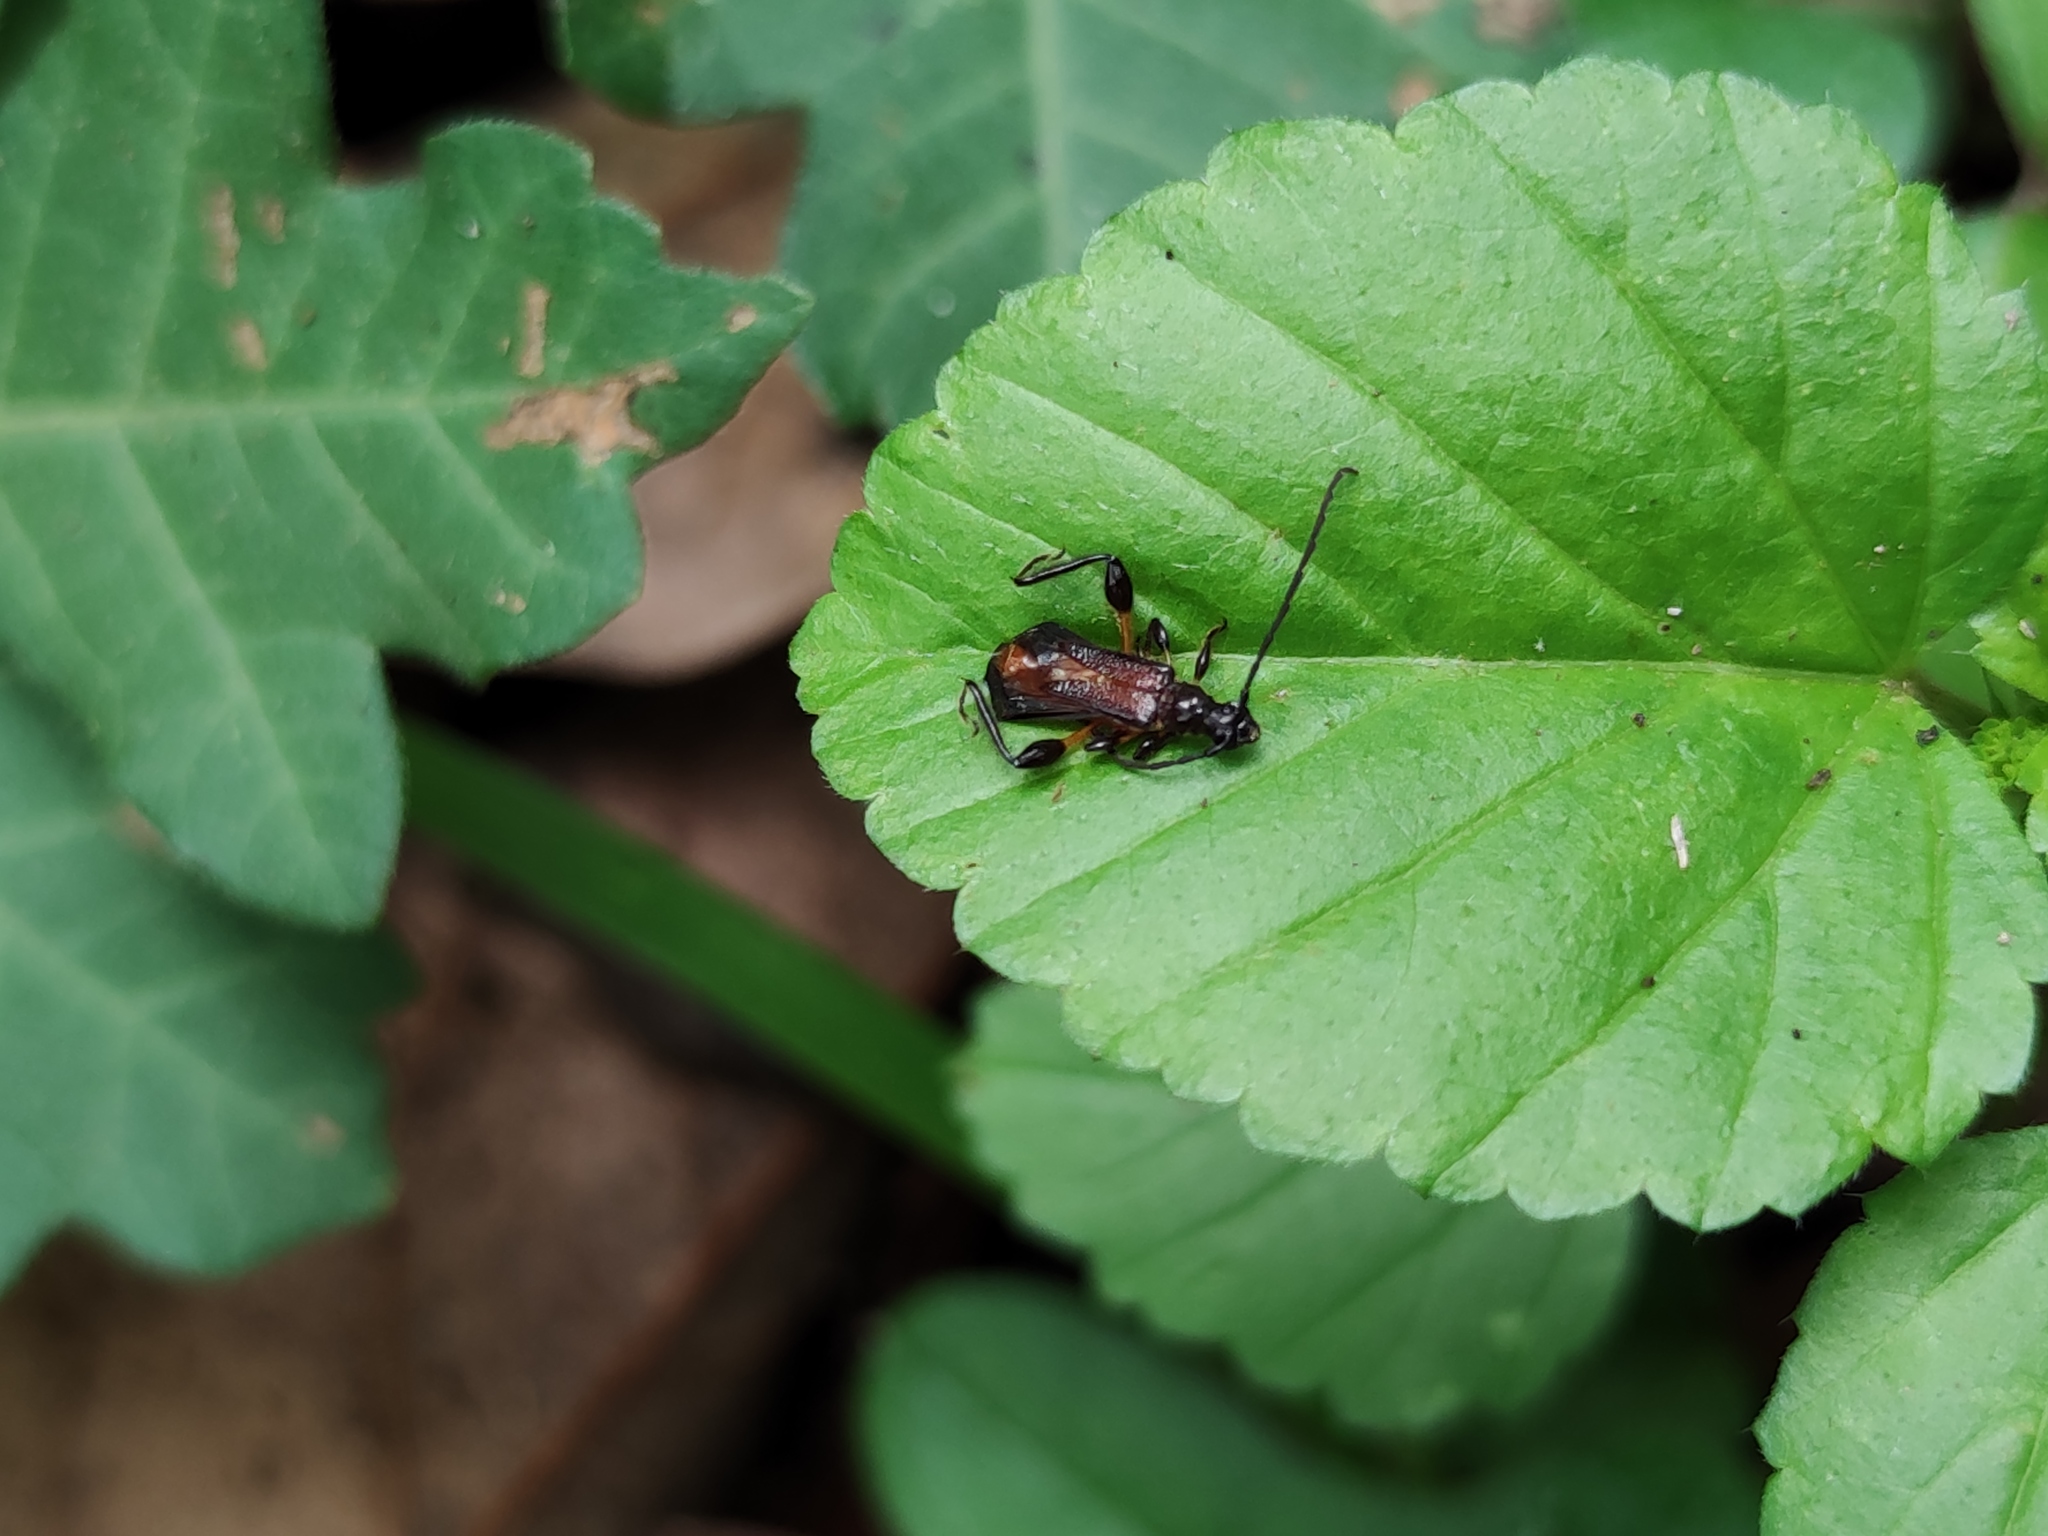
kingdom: Animalia
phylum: Arthropoda
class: Insecta
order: Coleoptera
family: Cerambycidae
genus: Oxycoleus
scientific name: Oxycoleus gratiosus
